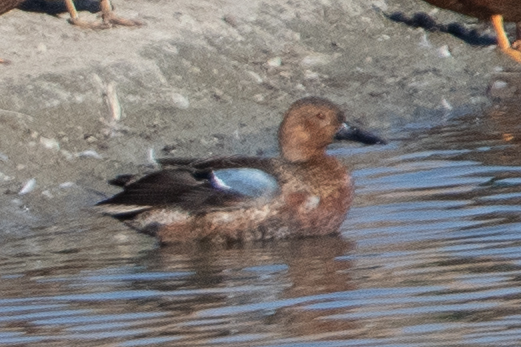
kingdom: Animalia
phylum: Chordata
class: Aves
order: Anseriformes
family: Anatidae
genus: Spatula
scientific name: Spatula cyanoptera
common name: Cinnamon teal
